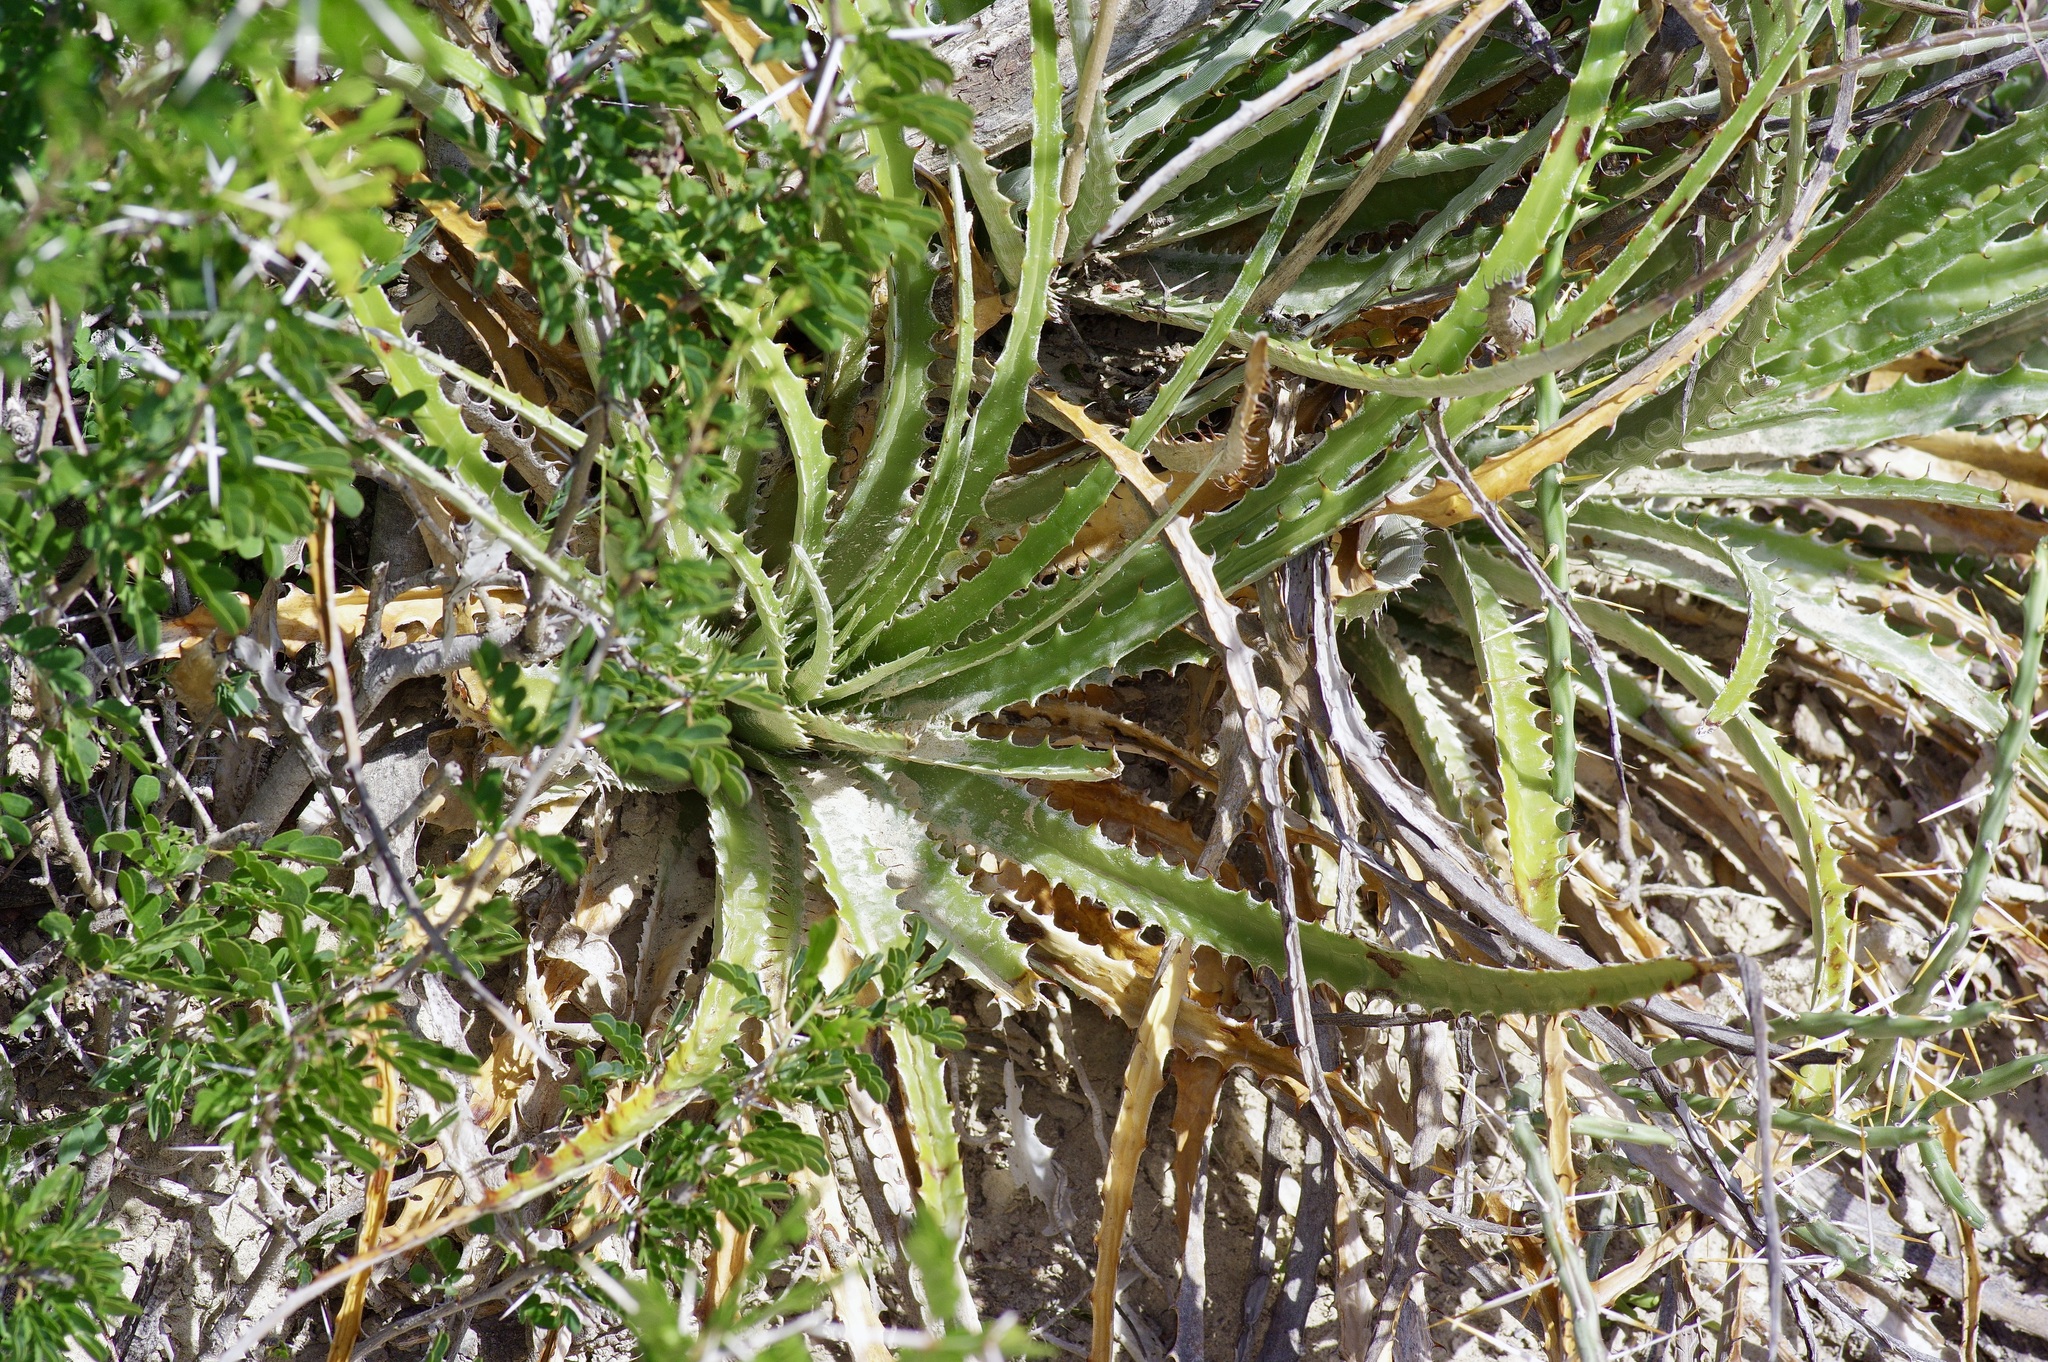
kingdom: Plantae
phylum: Tracheophyta
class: Liliopsida
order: Poales
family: Bromeliaceae
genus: Hechtia
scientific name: Hechtia glomerata
